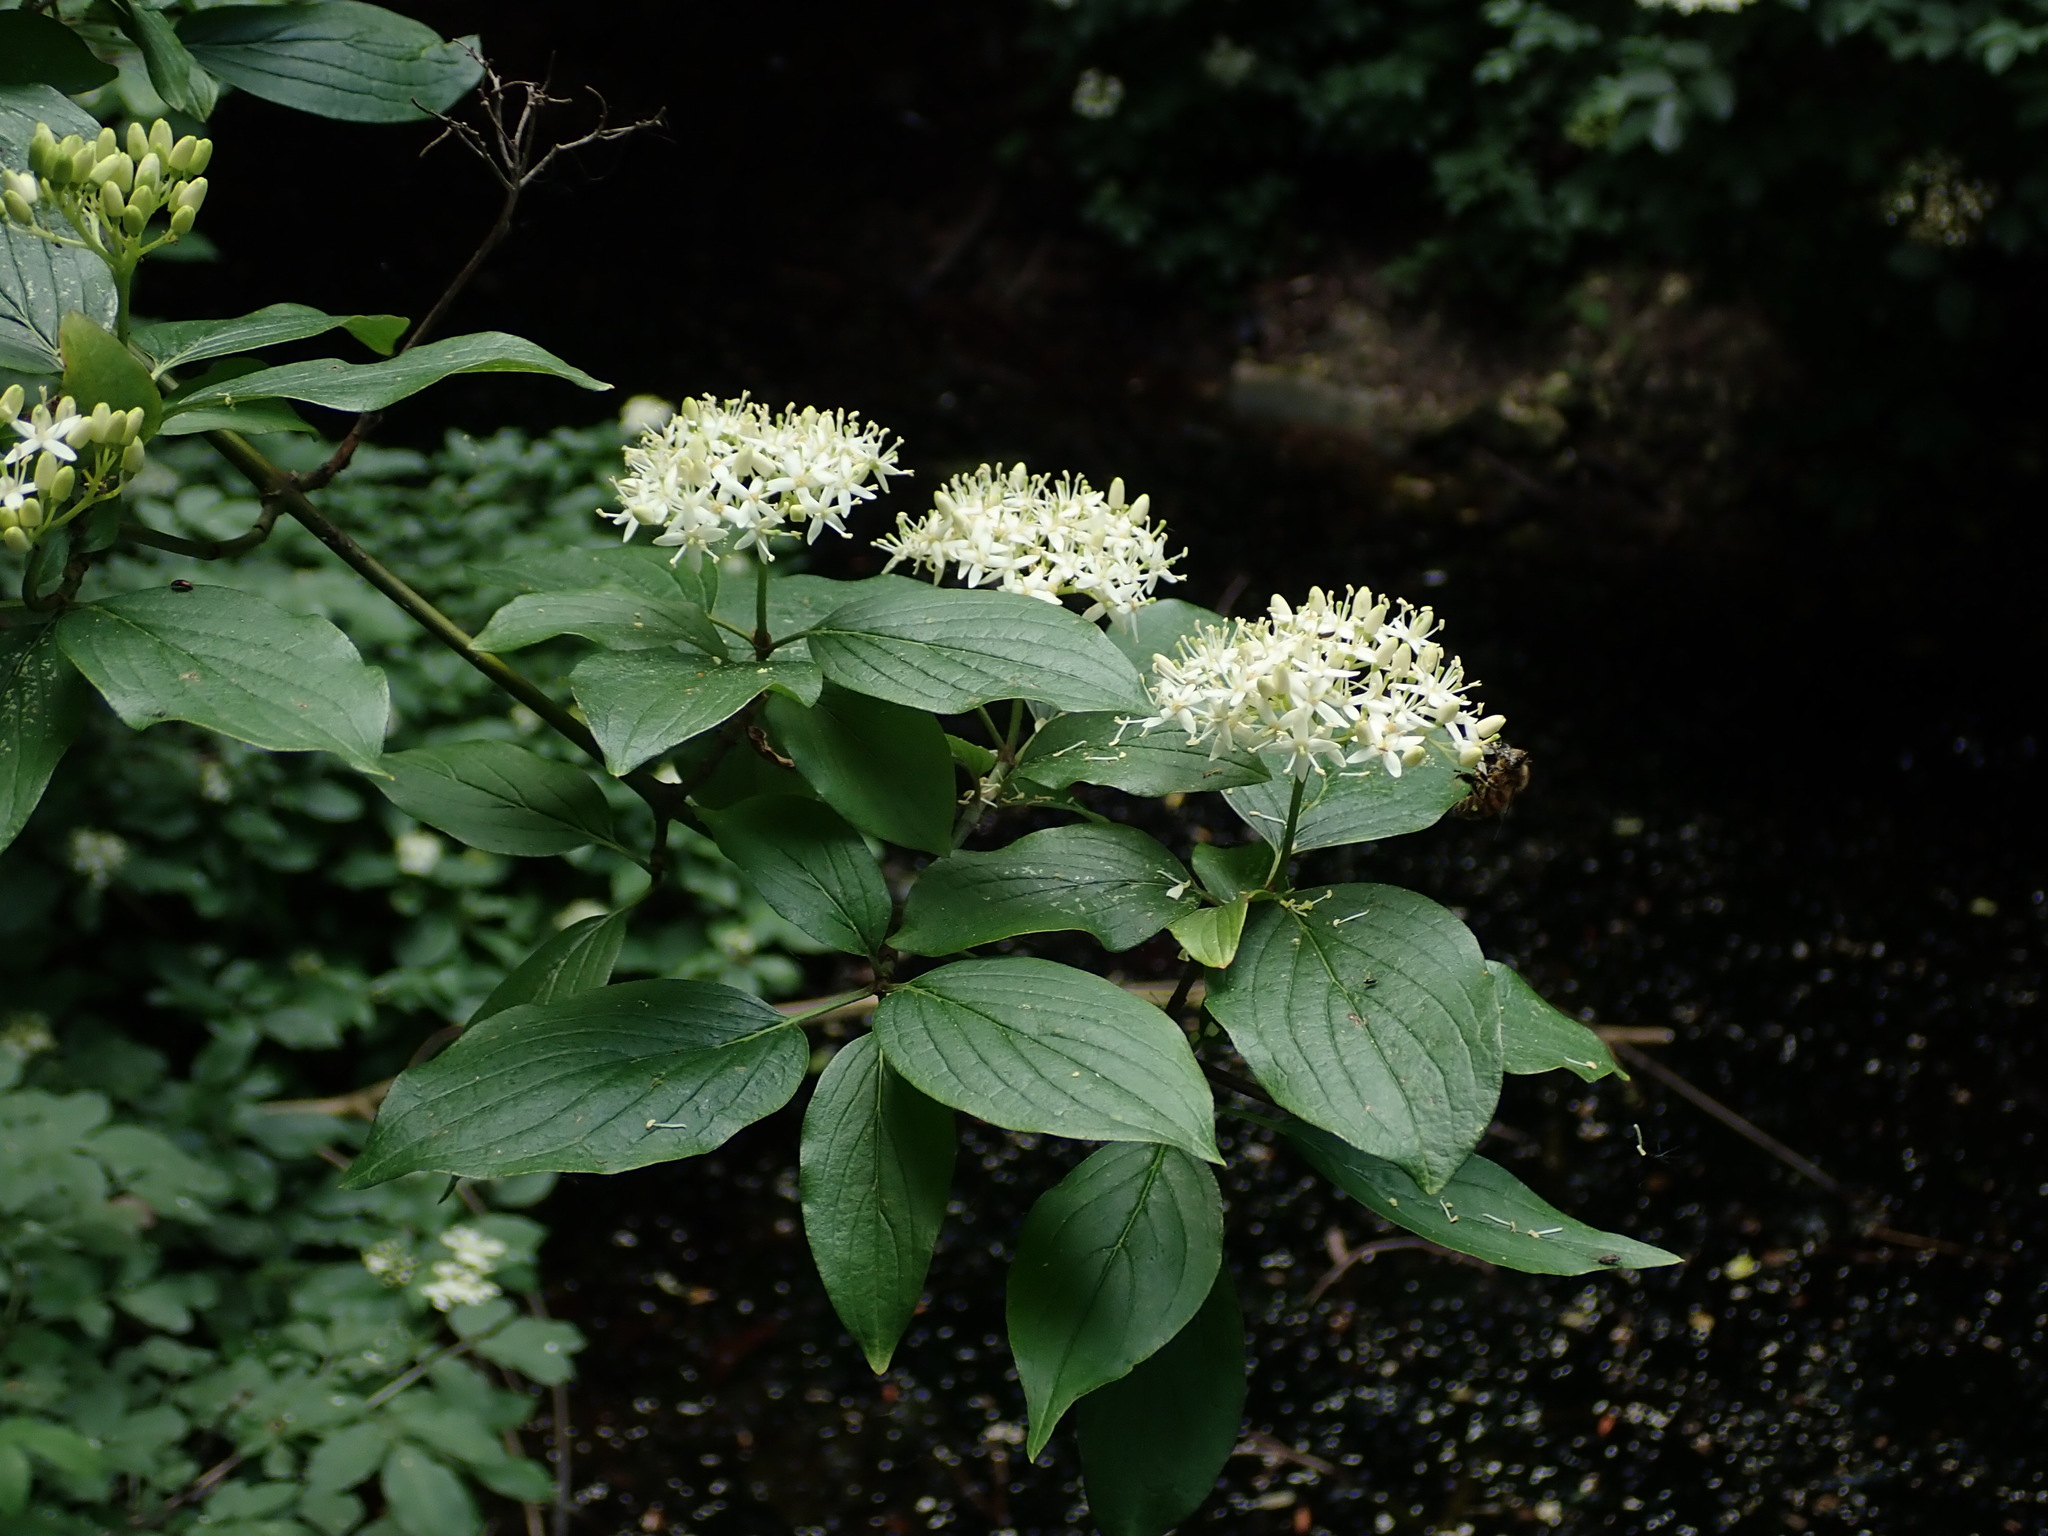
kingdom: Plantae
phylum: Tracheophyta
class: Magnoliopsida
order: Cornales
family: Cornaceae
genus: Cornus
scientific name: Cornus sanguinea
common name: Dogwood
